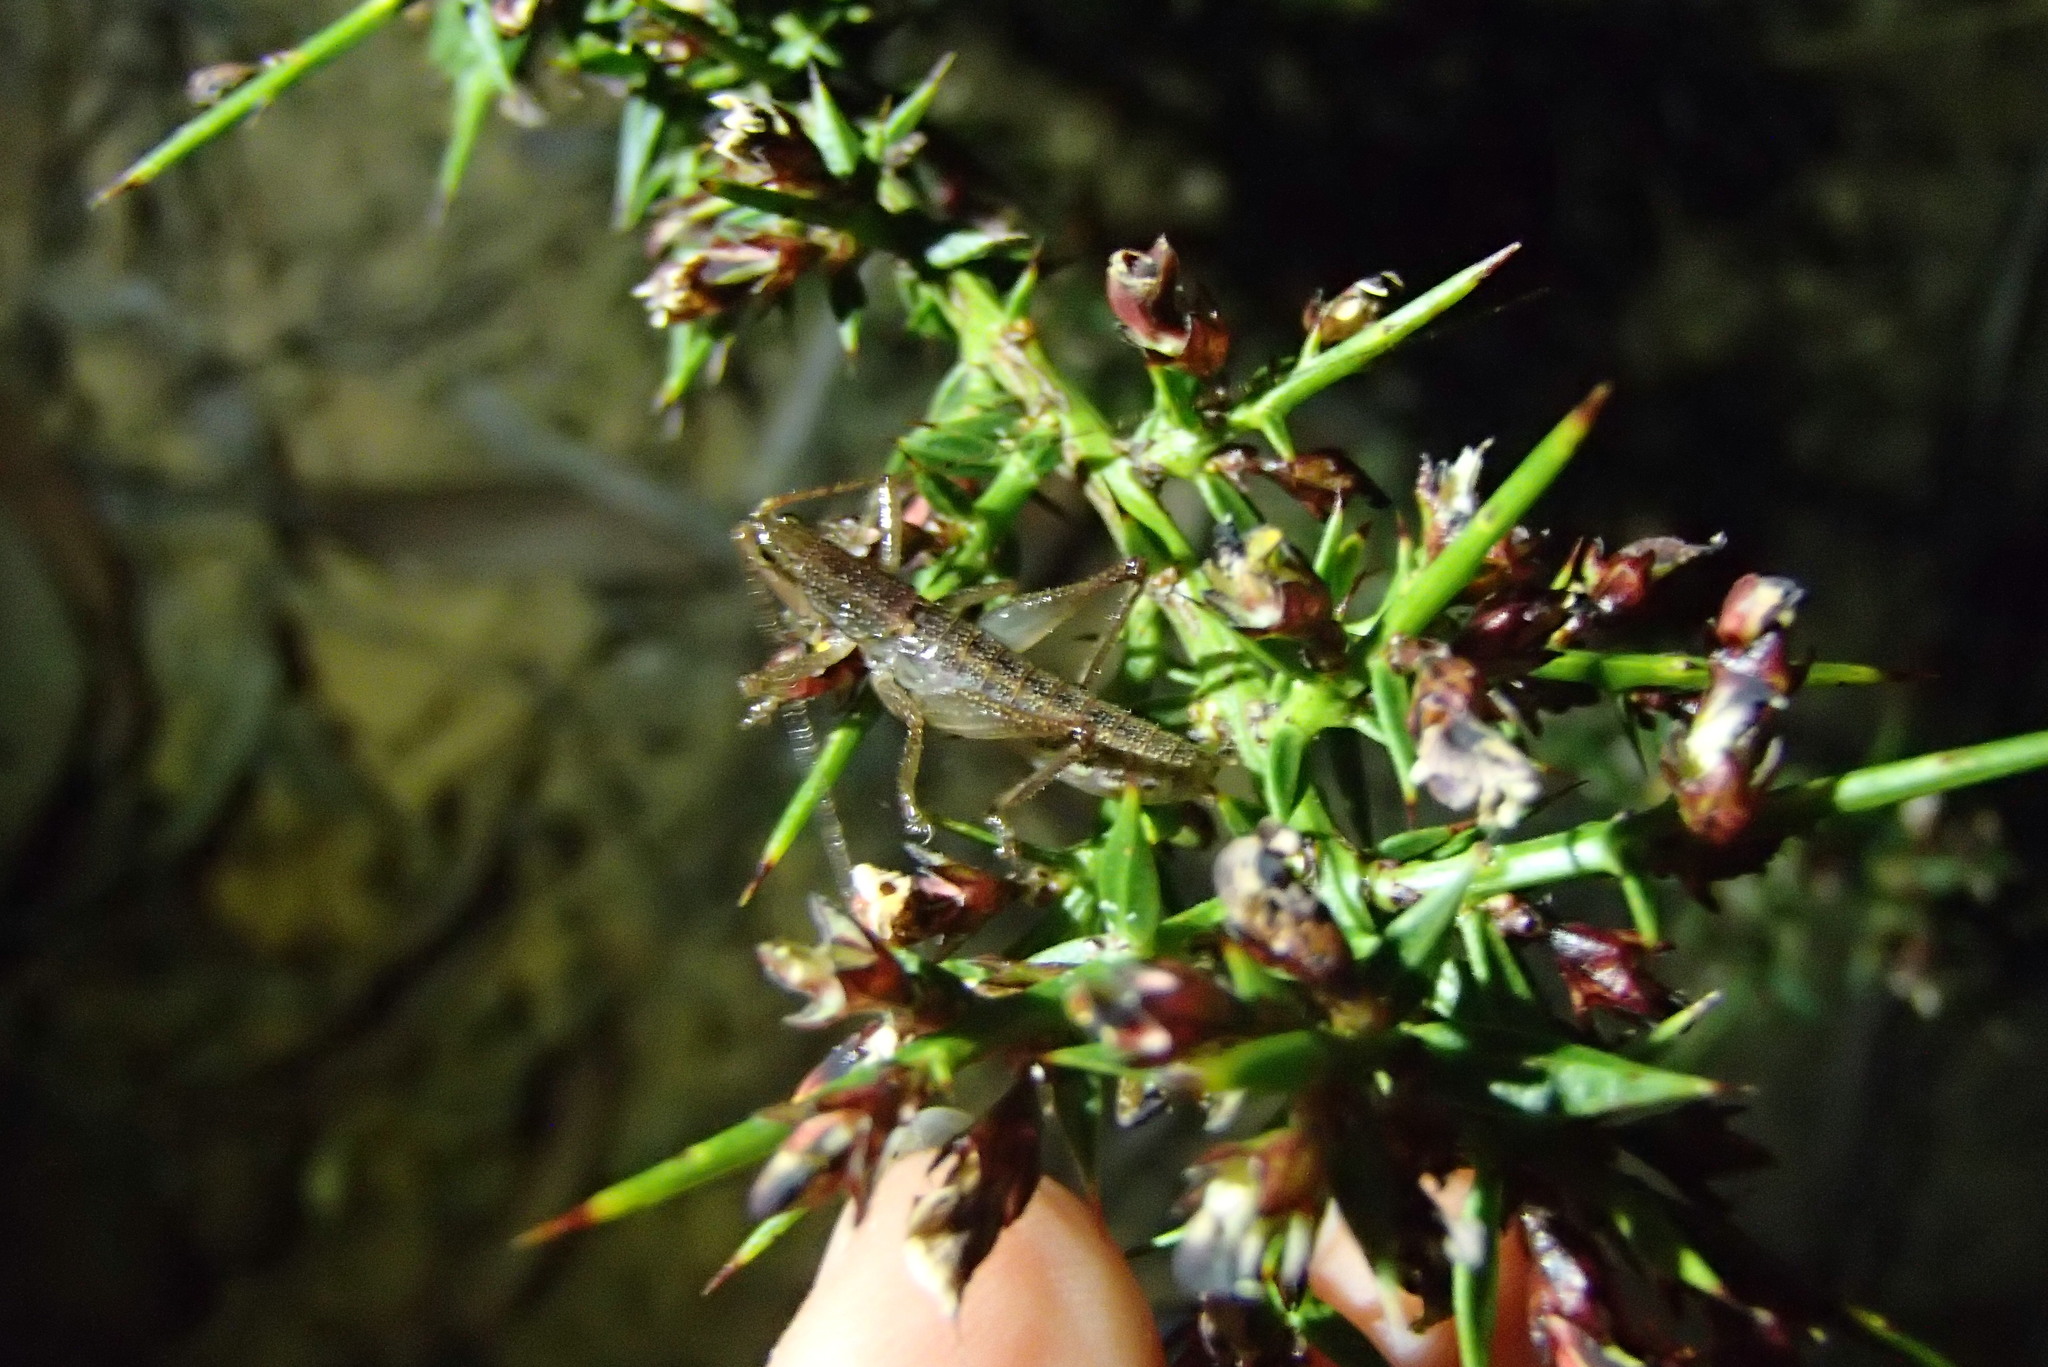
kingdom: Animalia
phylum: Arthropoda
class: Insecta
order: Orthoptera
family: Tettigoniidae
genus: Coptaspis
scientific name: Coptaspis brevipennis
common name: Sidney woodland katydid
